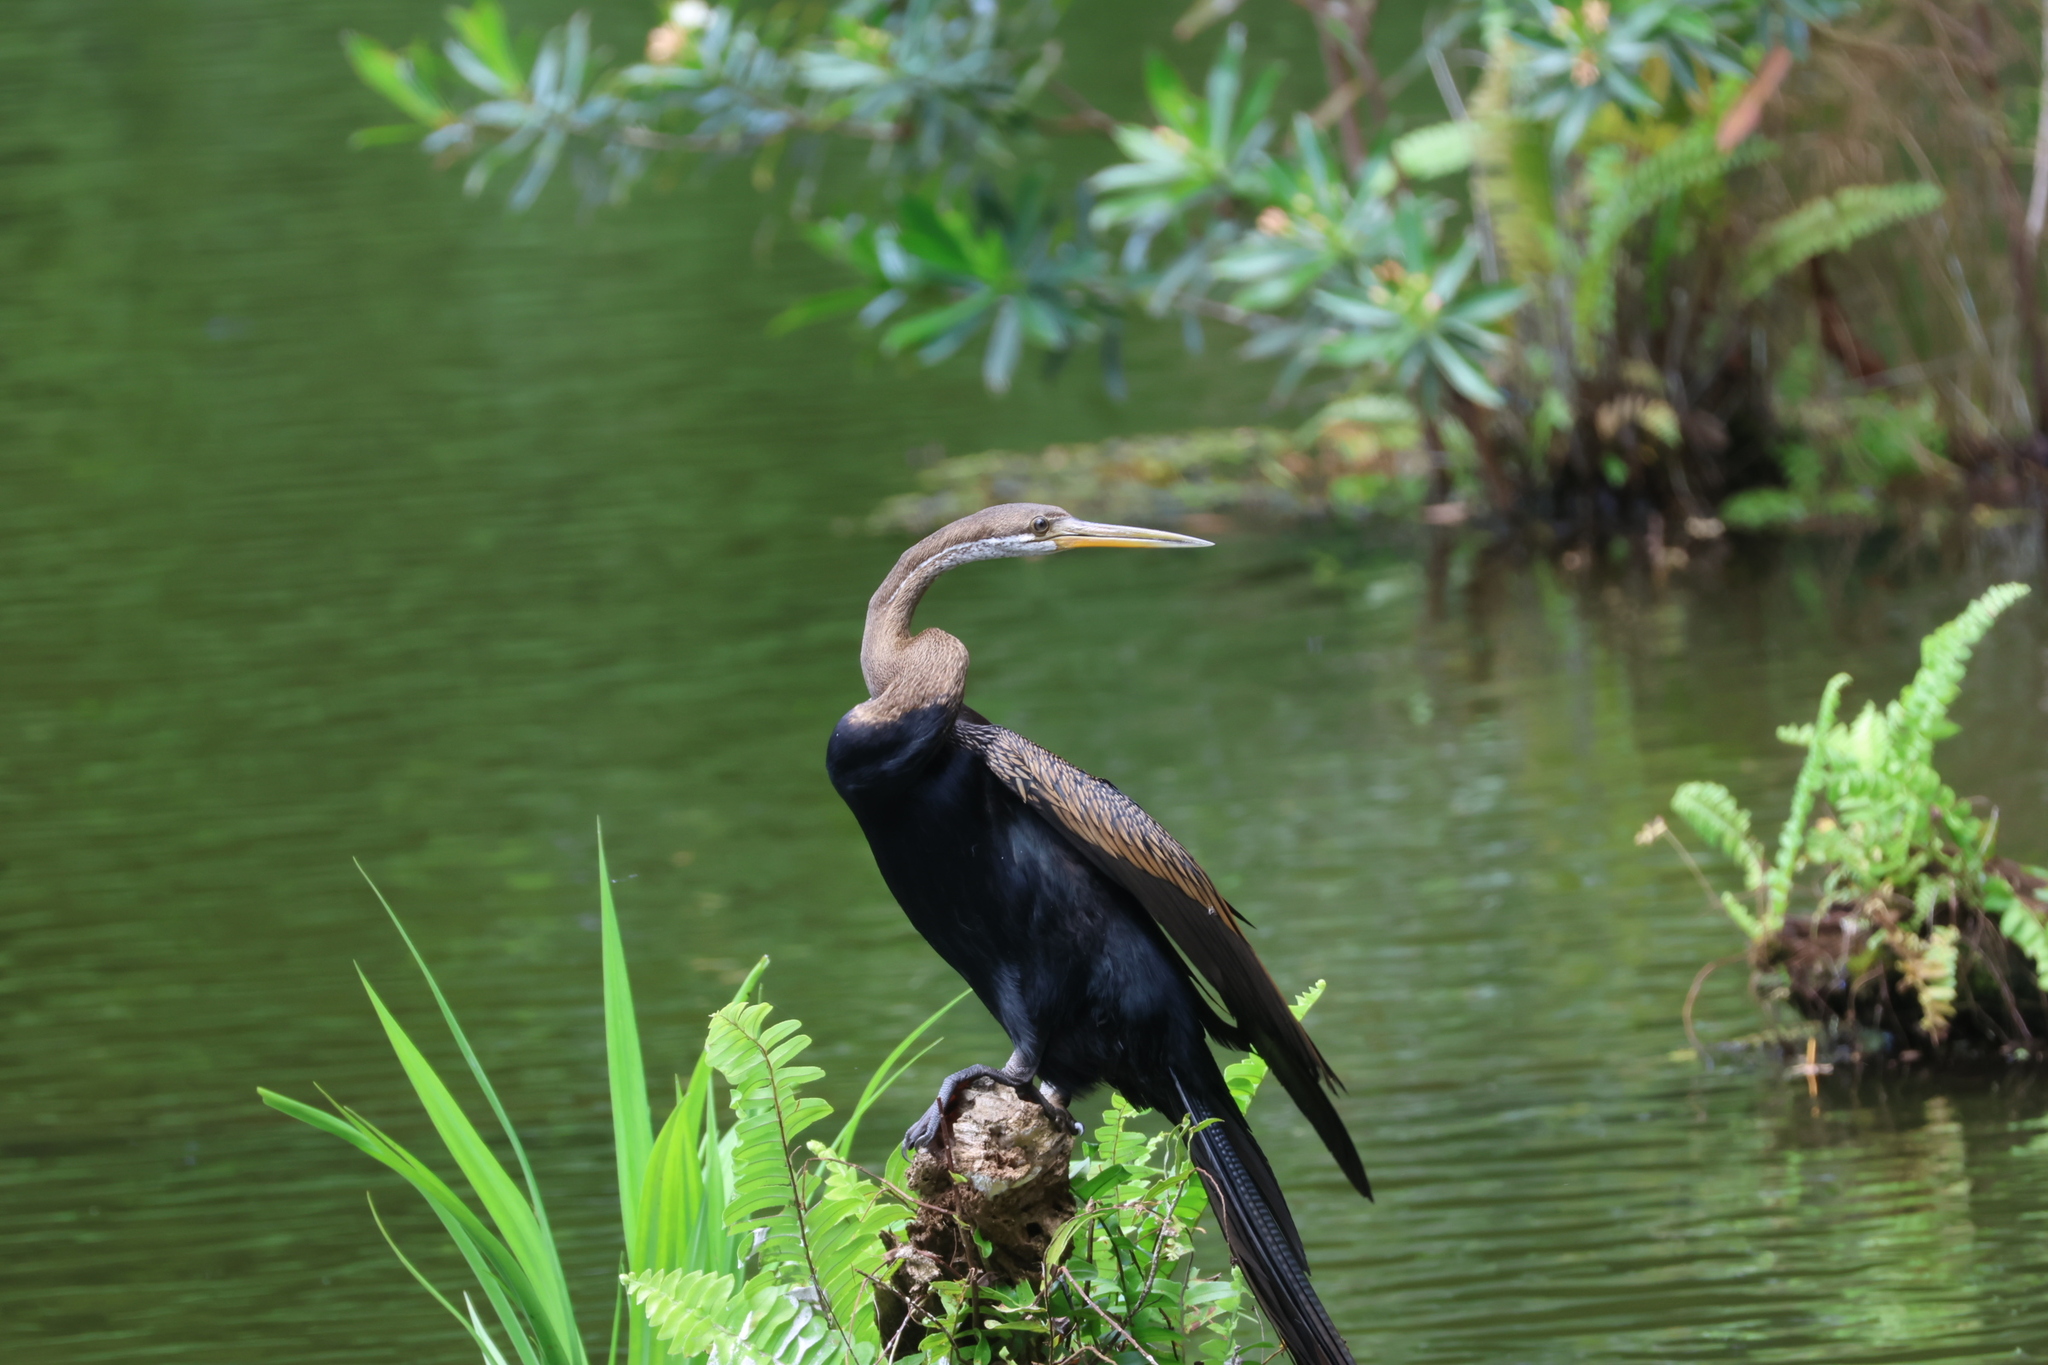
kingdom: Animalia
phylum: Chordata
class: Aves
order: Suliformes
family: Anhingidae
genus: Anhinga
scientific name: Anhinga melanogaster
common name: Oriental darter
